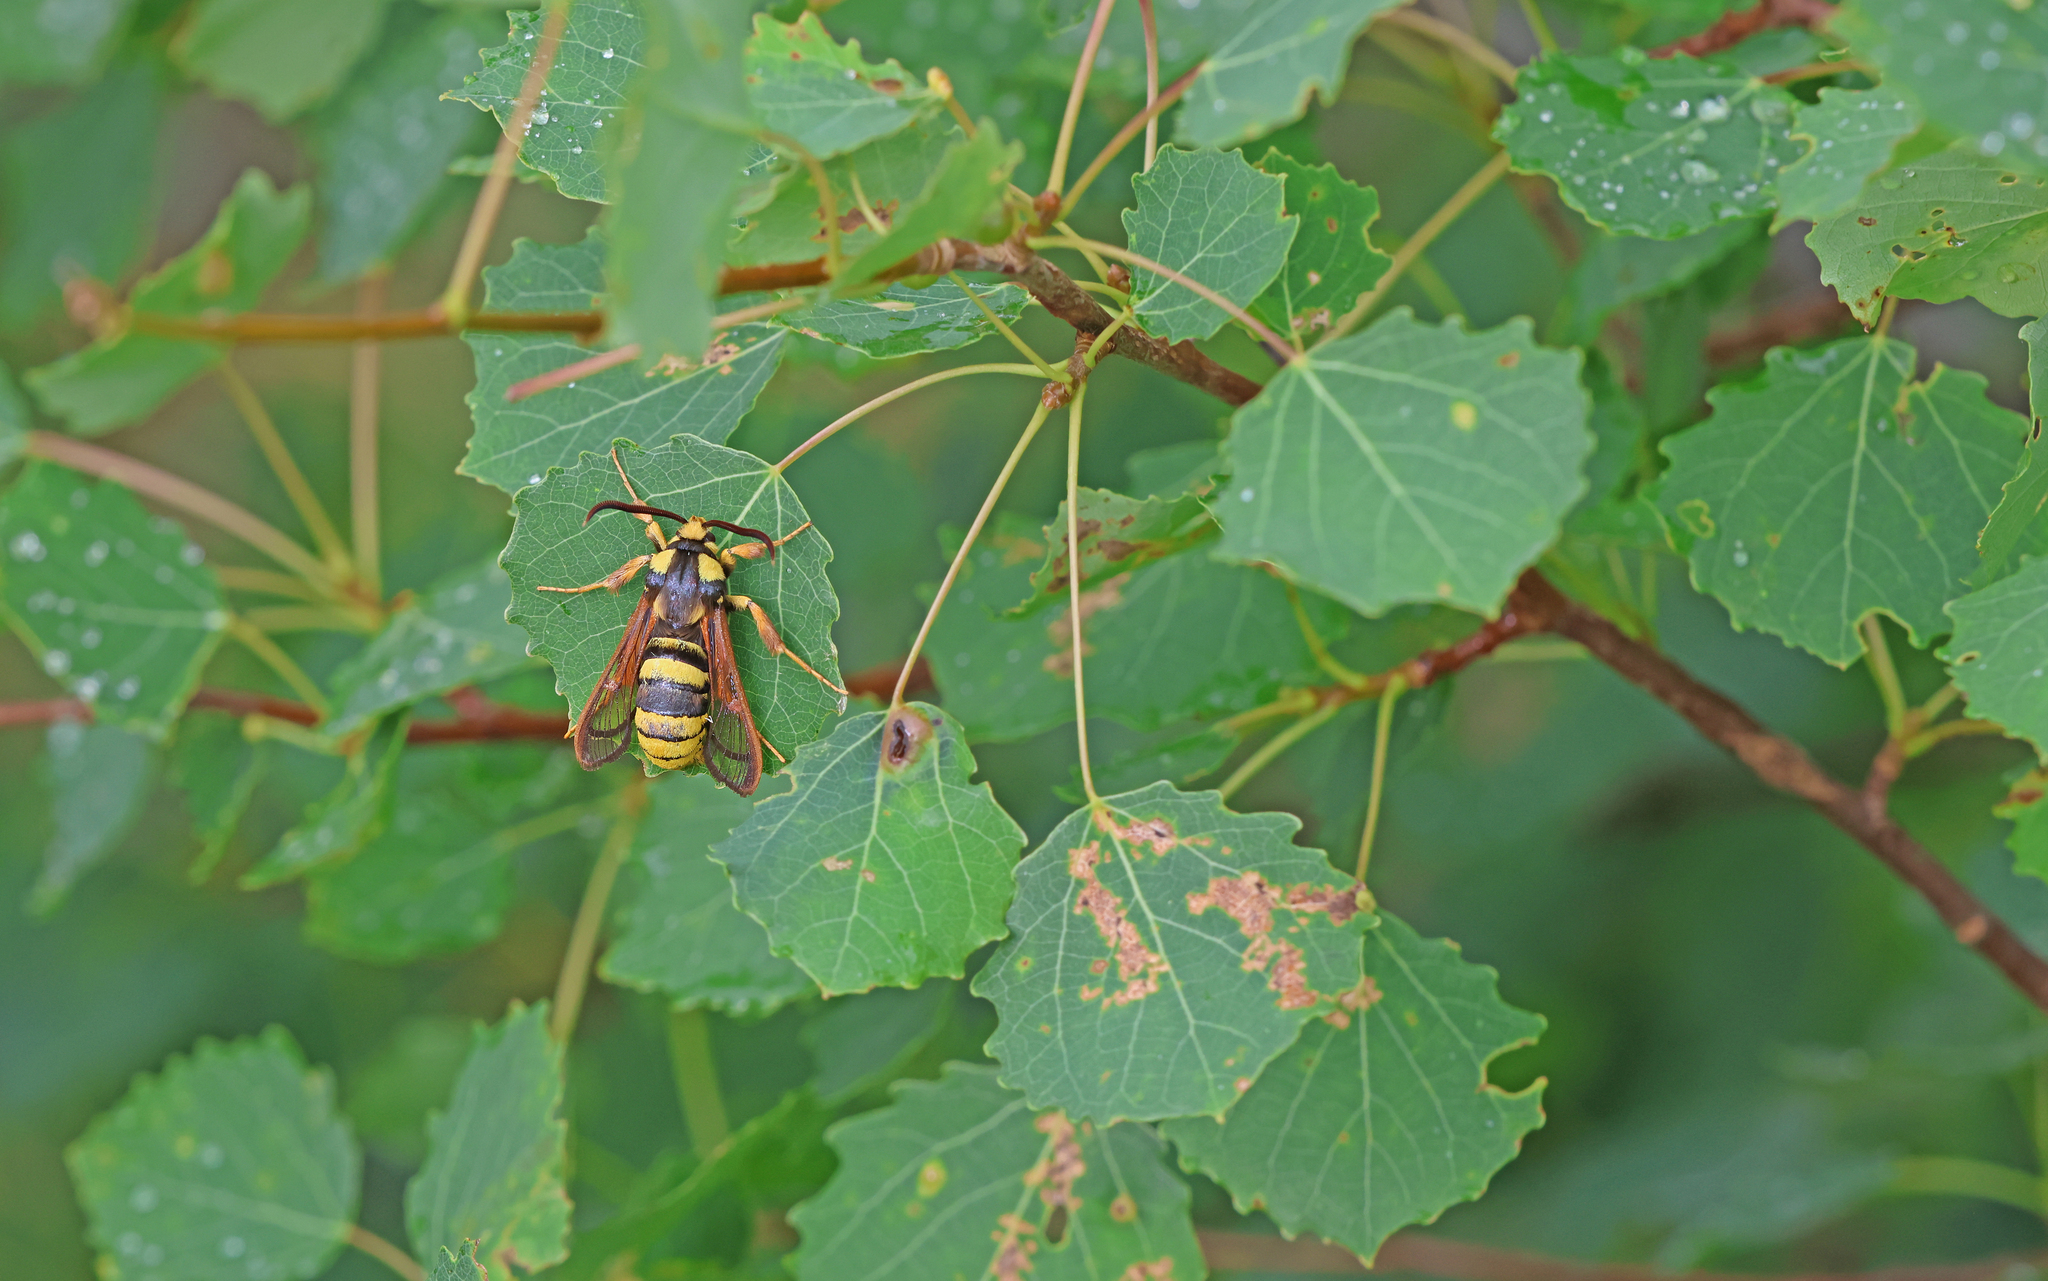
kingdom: Animalia
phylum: Arthropoda
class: Insecta
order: Lepidoptera
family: Sesiidae
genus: Sesia
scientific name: Sesia apiformis
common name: Hornet moth
